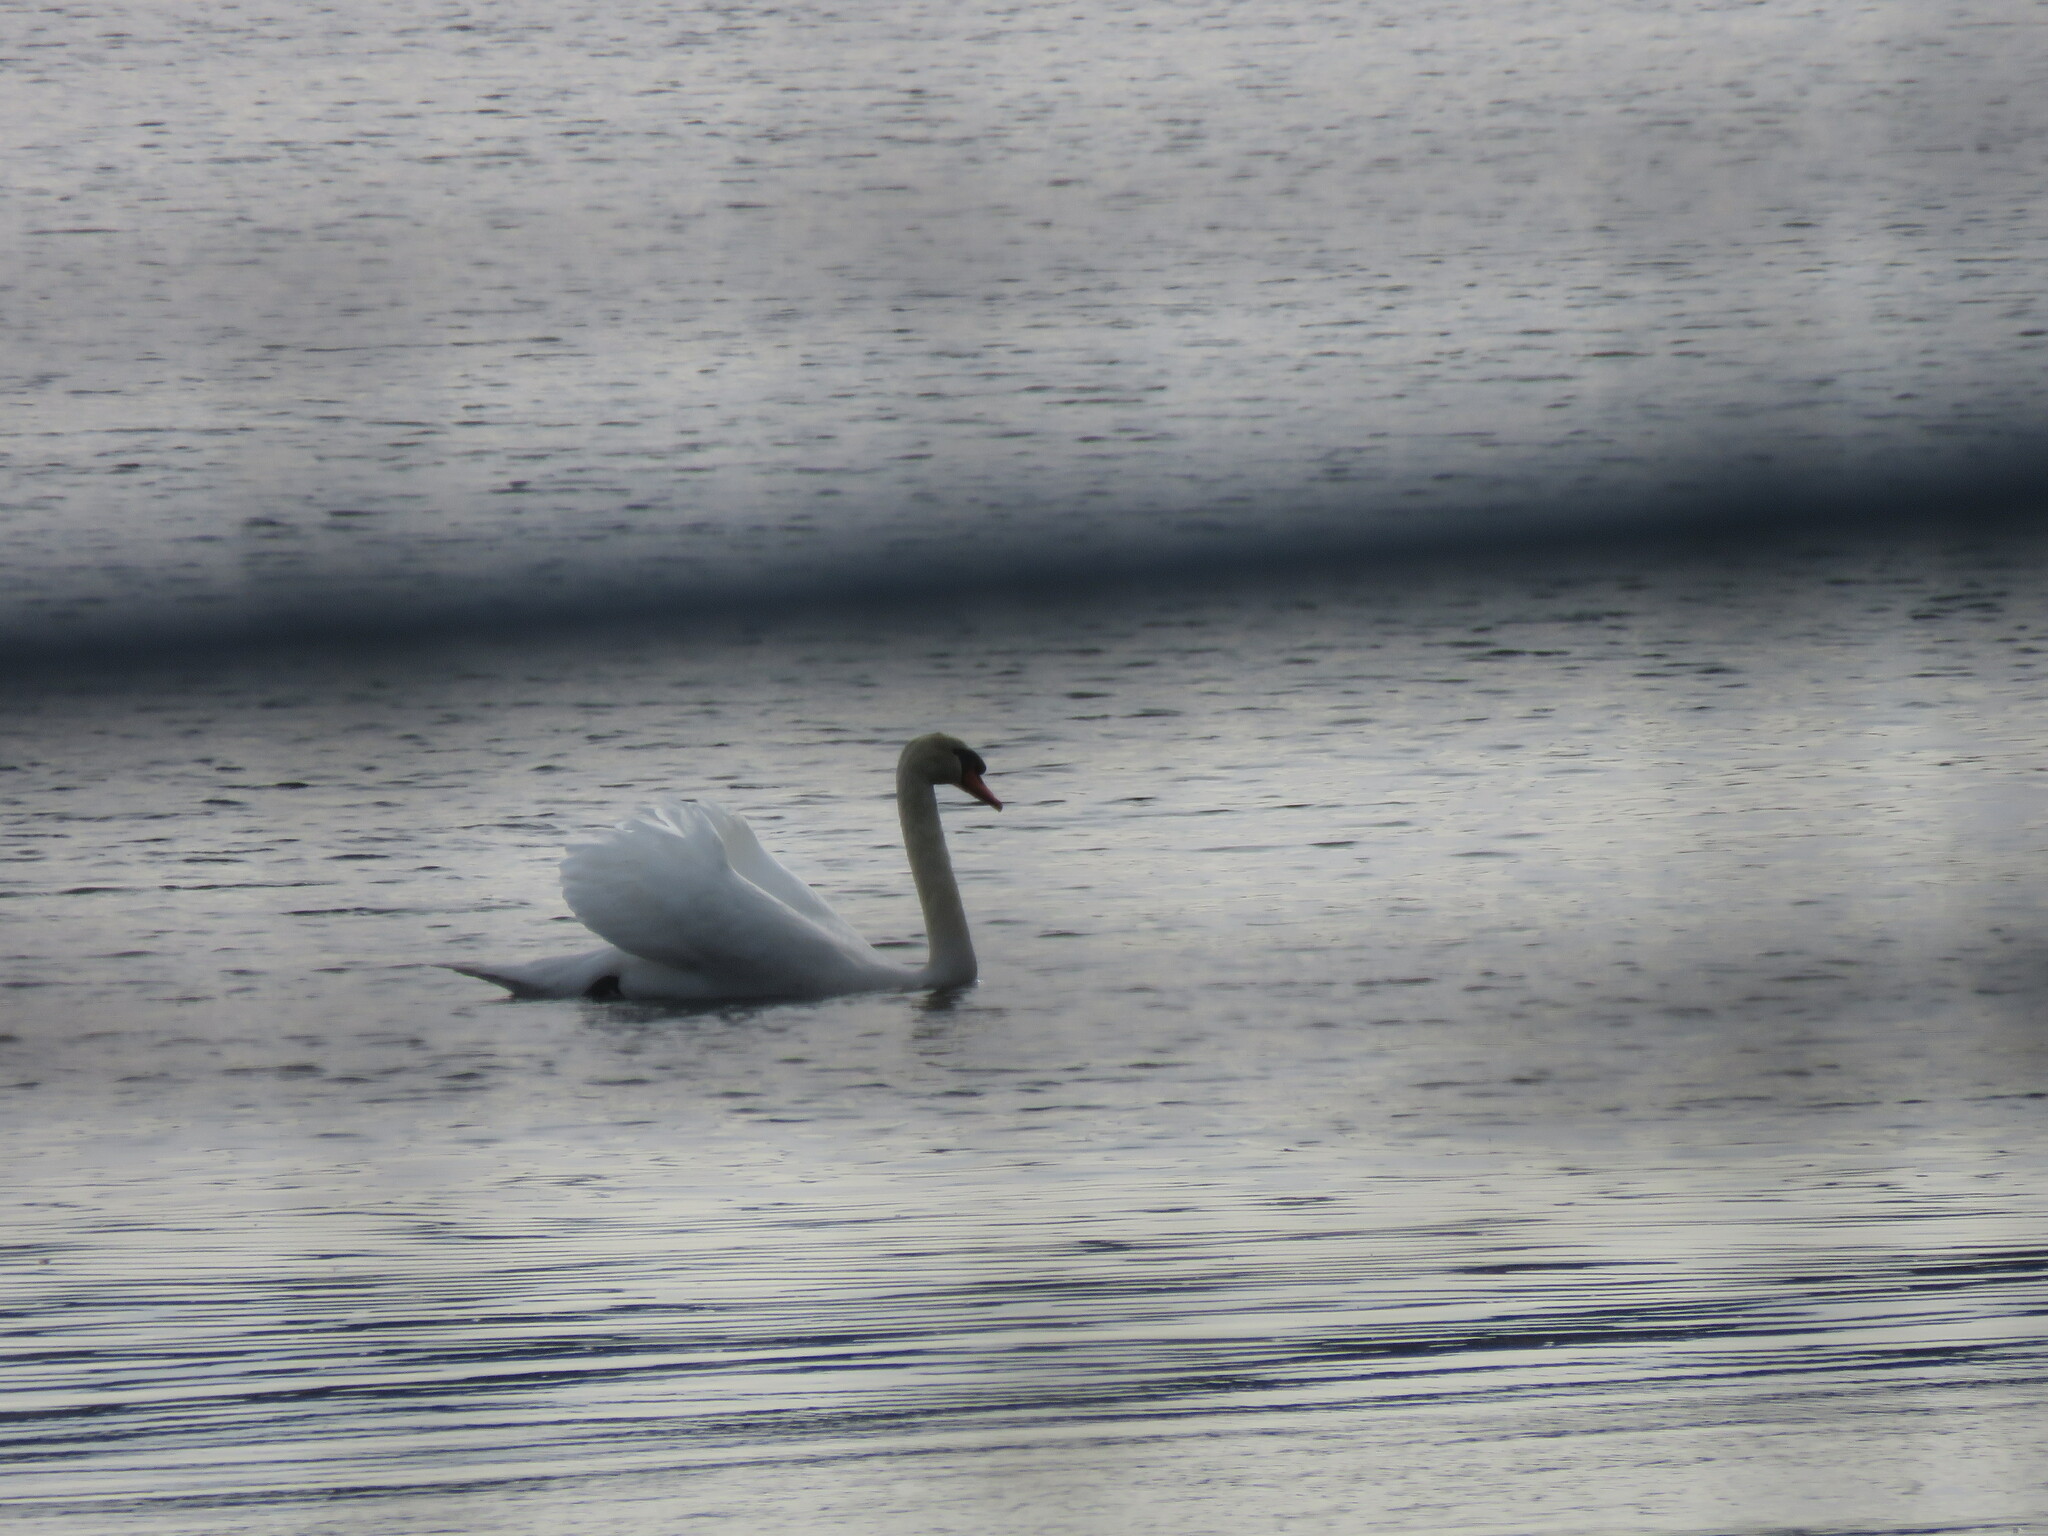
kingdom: Animalia
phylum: Chordata
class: Aves
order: Anseriformes
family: Anatidae
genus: Cygnus
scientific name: Cygnus olor
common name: Mute swan
